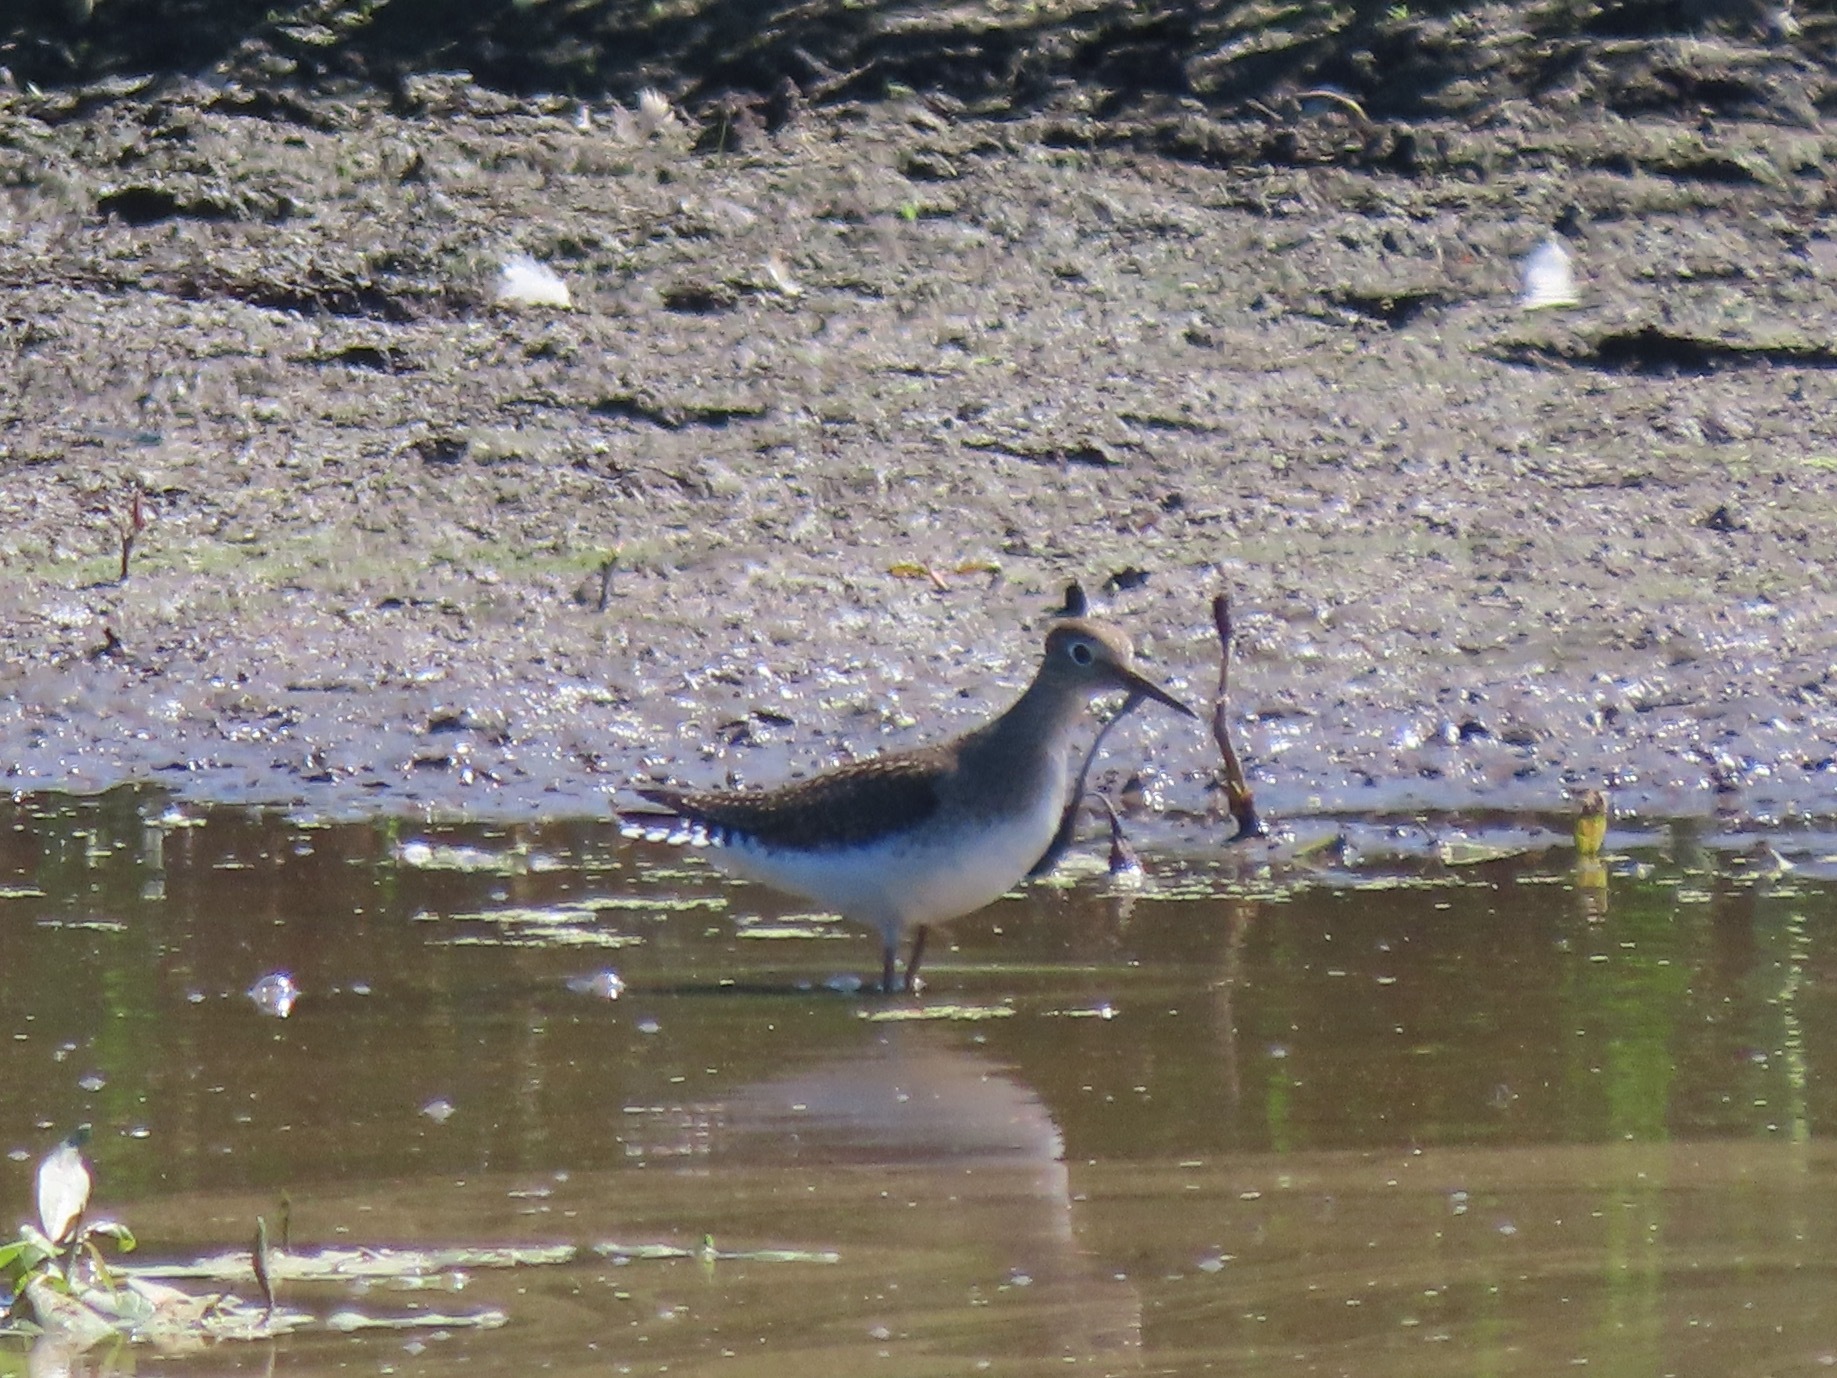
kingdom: Animalia
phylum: Chordata
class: Aves
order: Charadriiformes
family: Scolopacidae
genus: Tringa
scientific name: Tringa solitaria
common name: Solitary sandpiper
